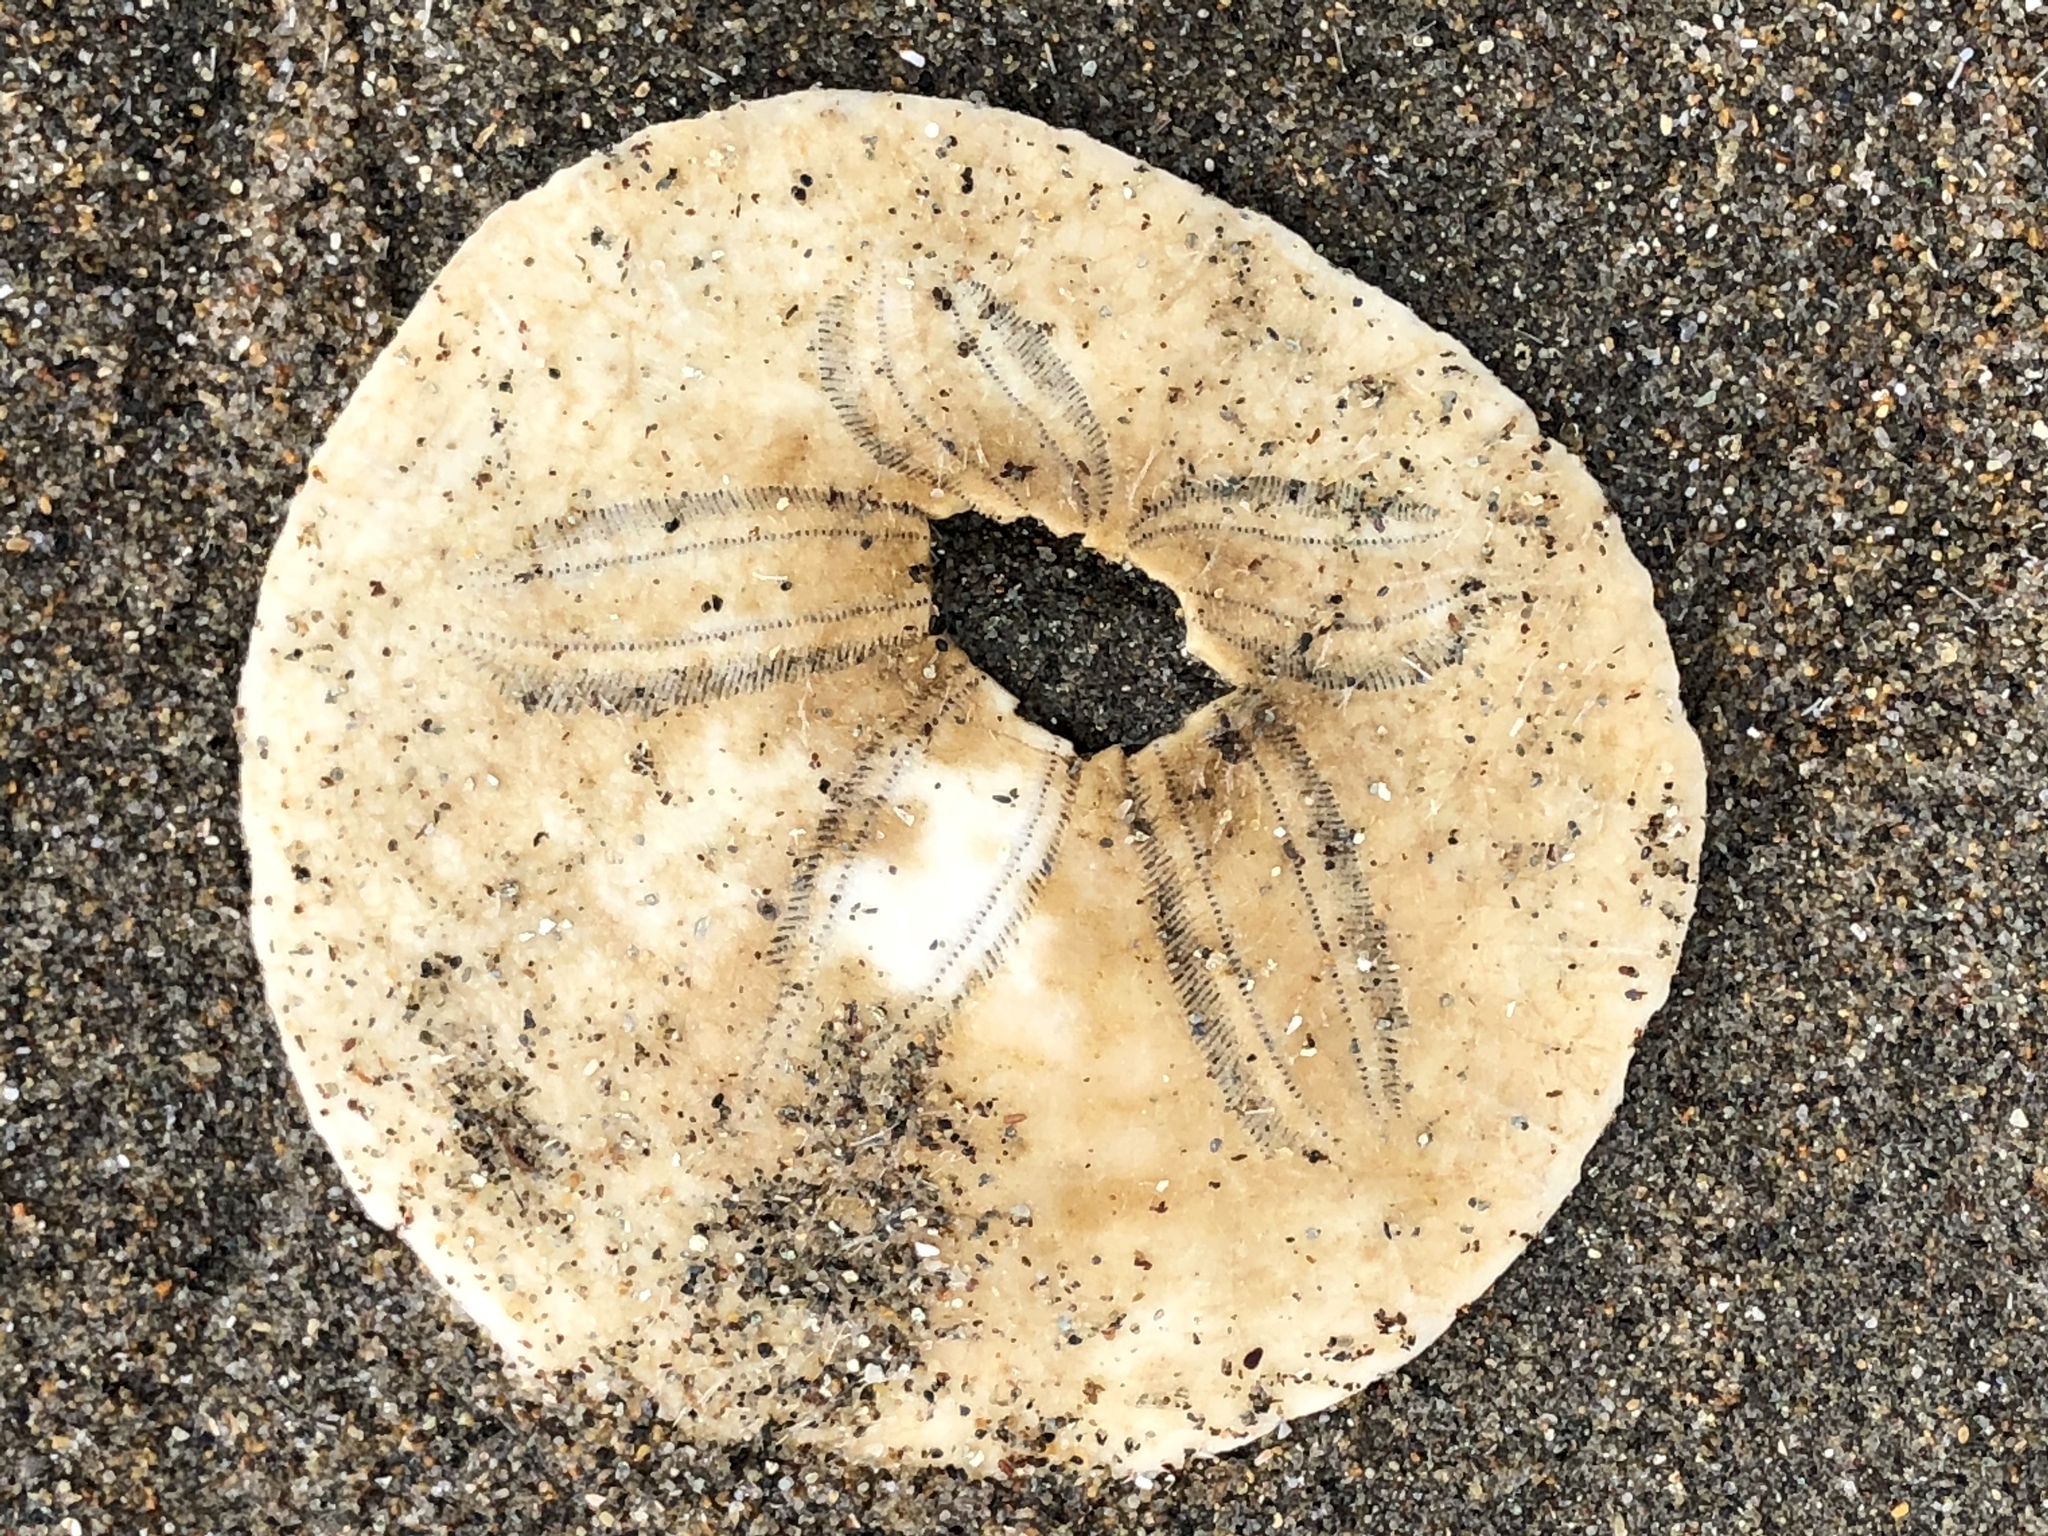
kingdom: Animalia
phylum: Echinodermata
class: Echinoidea
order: Echinolampadacea
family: Dendrasteridae
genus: Dendraster
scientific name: Dendraster excentricus
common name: Eccentric sand dollar sea urchin
